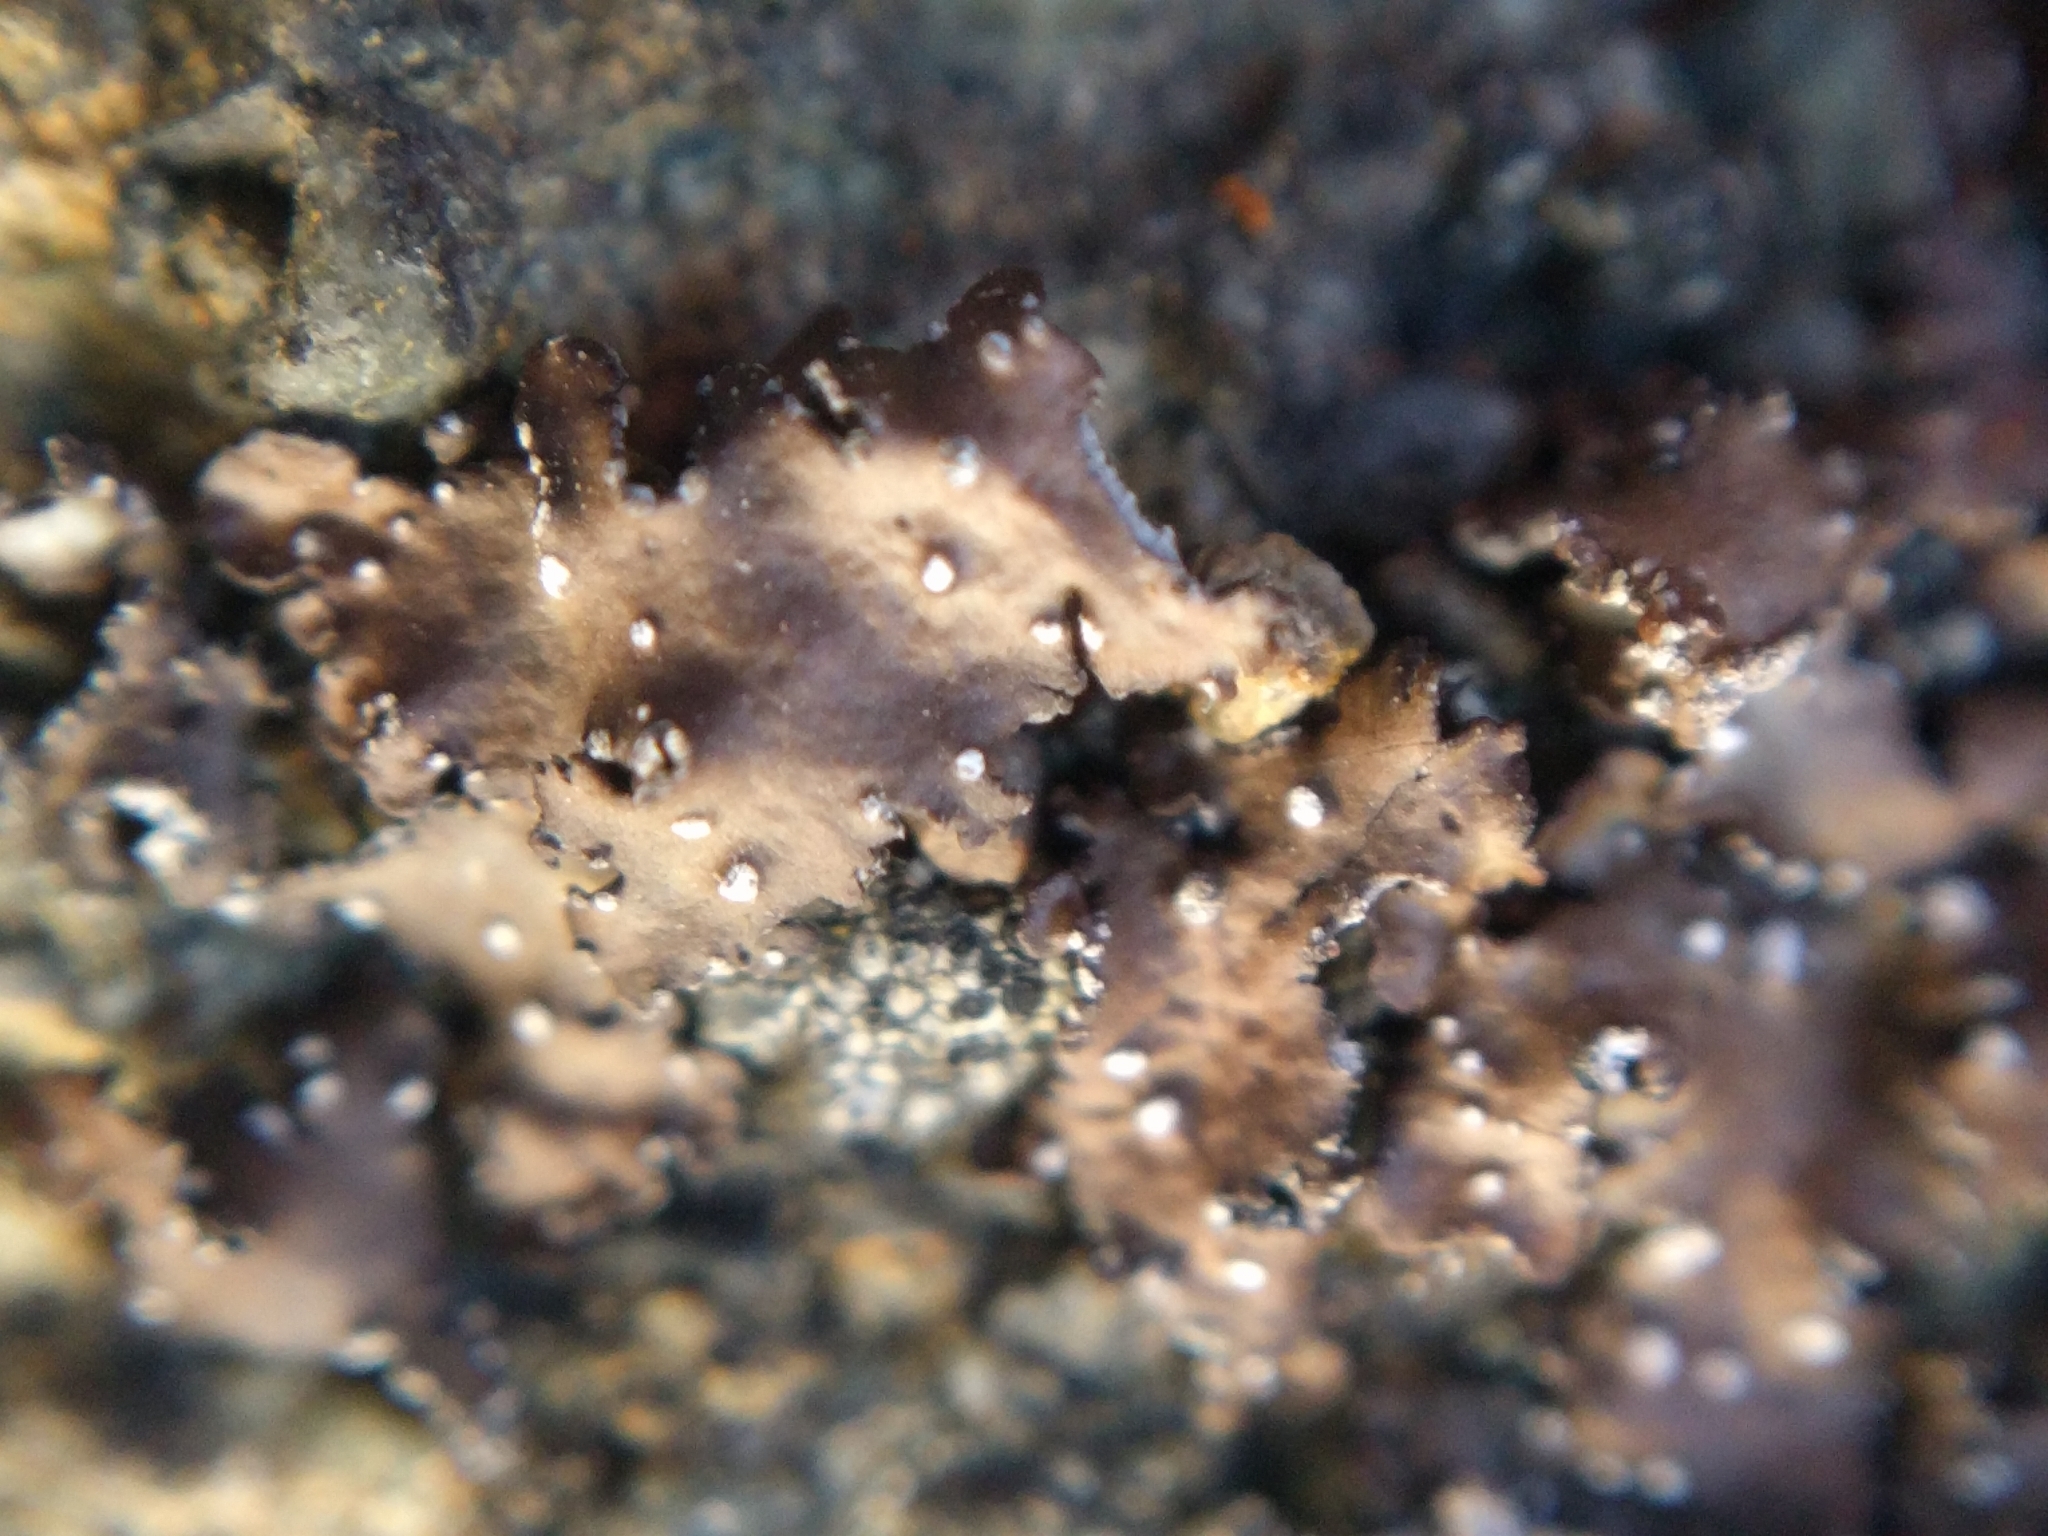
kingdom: Fungi
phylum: Ascomycota
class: Lecanoromycetes
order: Lecanorales
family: Parmeliaceae
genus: Punctelia
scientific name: Punctelia stictica
